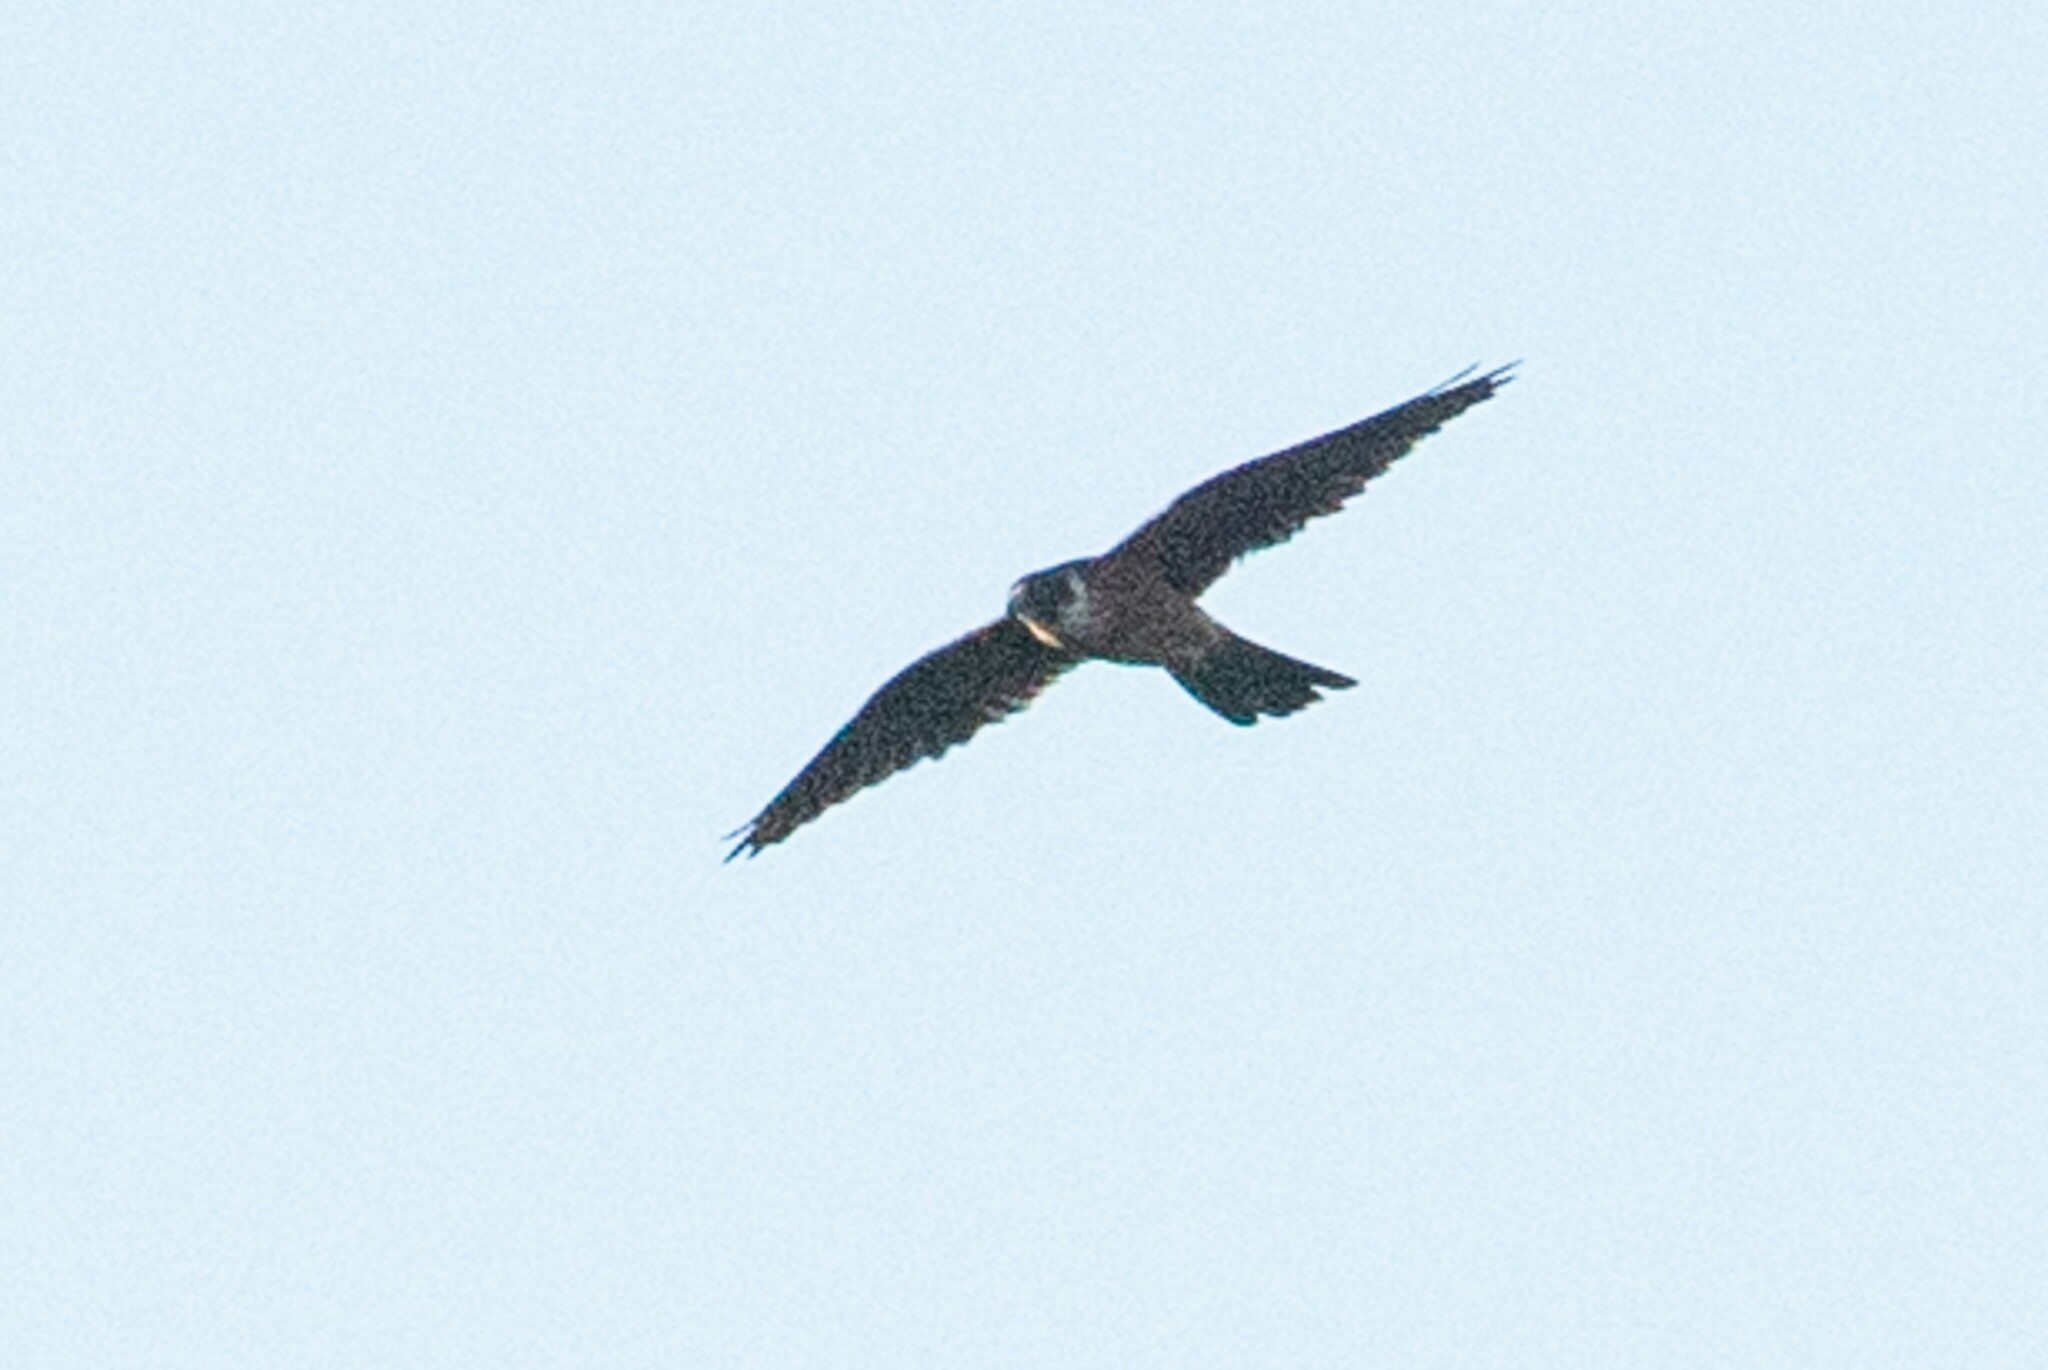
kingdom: Animalia
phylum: Chordata
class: Aves
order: Falconiformes
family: Falconidae
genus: Falco
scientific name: Falco longipennis
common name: Australian hobby
